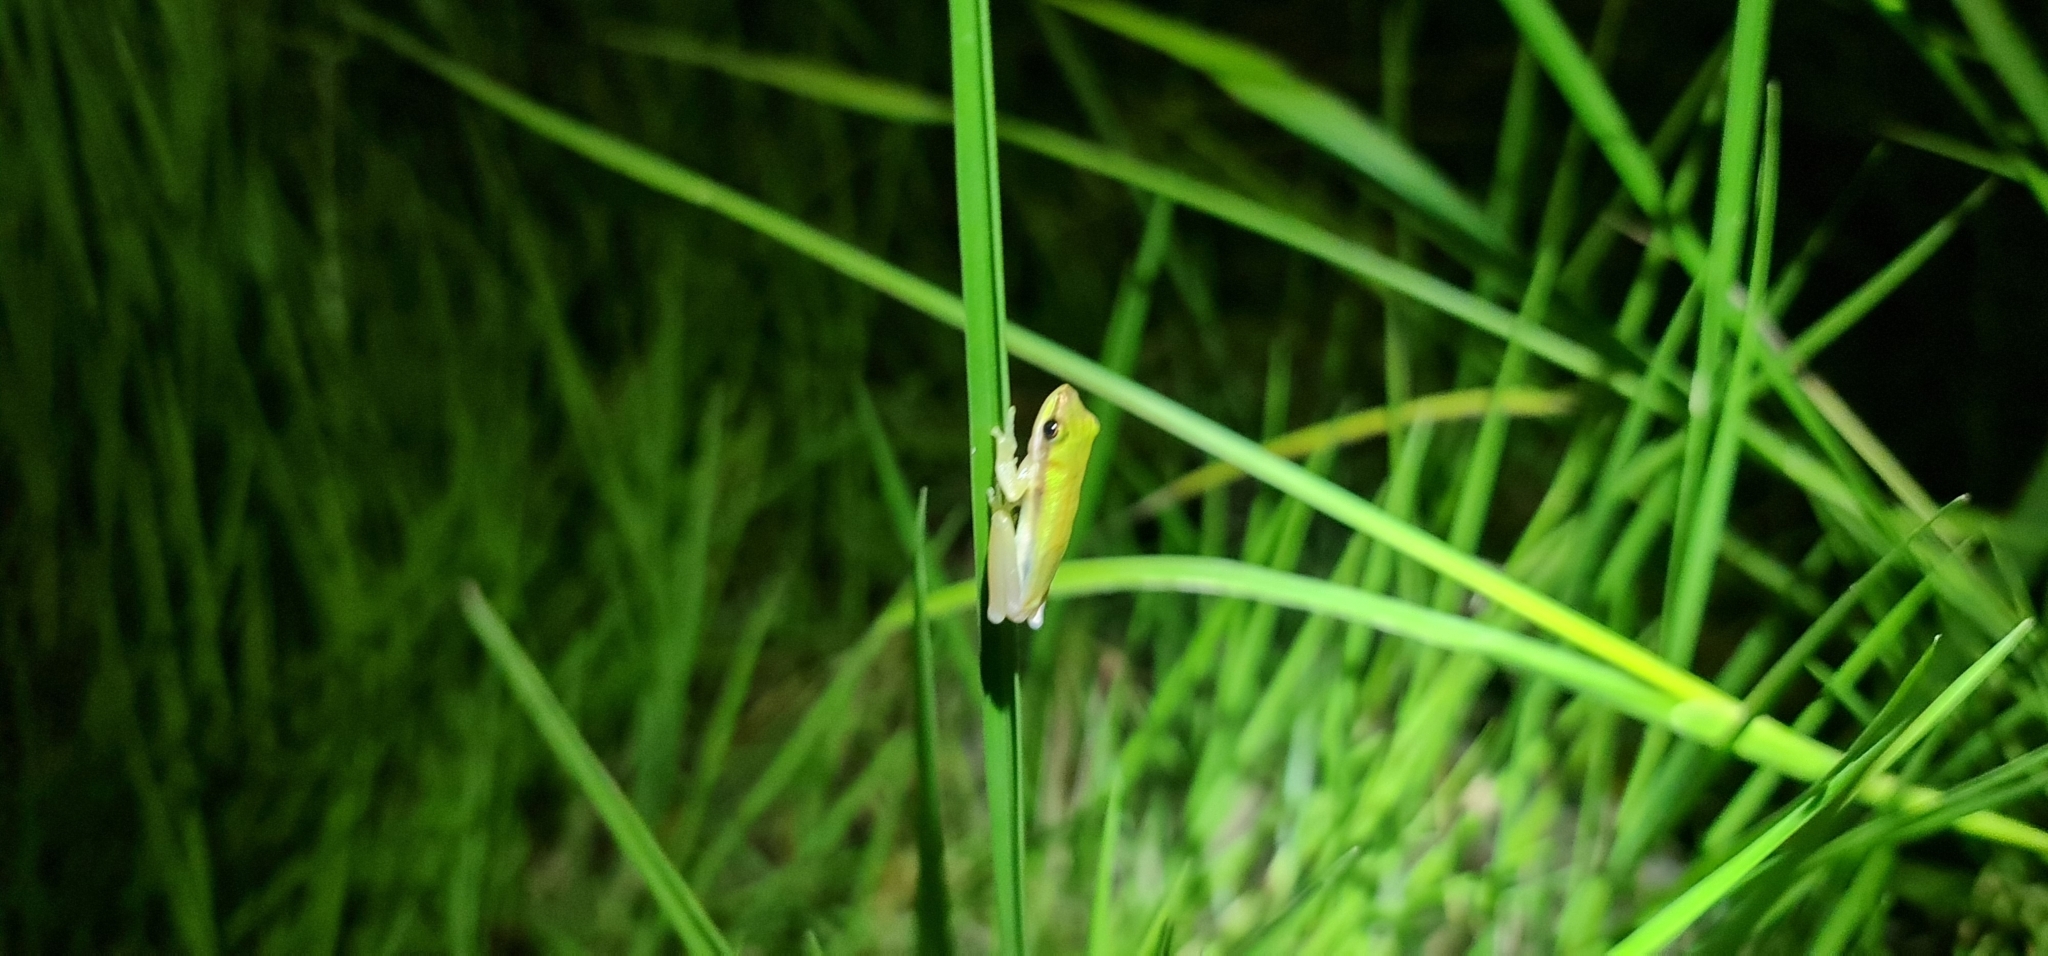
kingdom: Animalia
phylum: Chordata
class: Amphibia
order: Anura
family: Pelodryadidae
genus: Litoria
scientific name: Litoria bicolor
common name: Green reed frog
